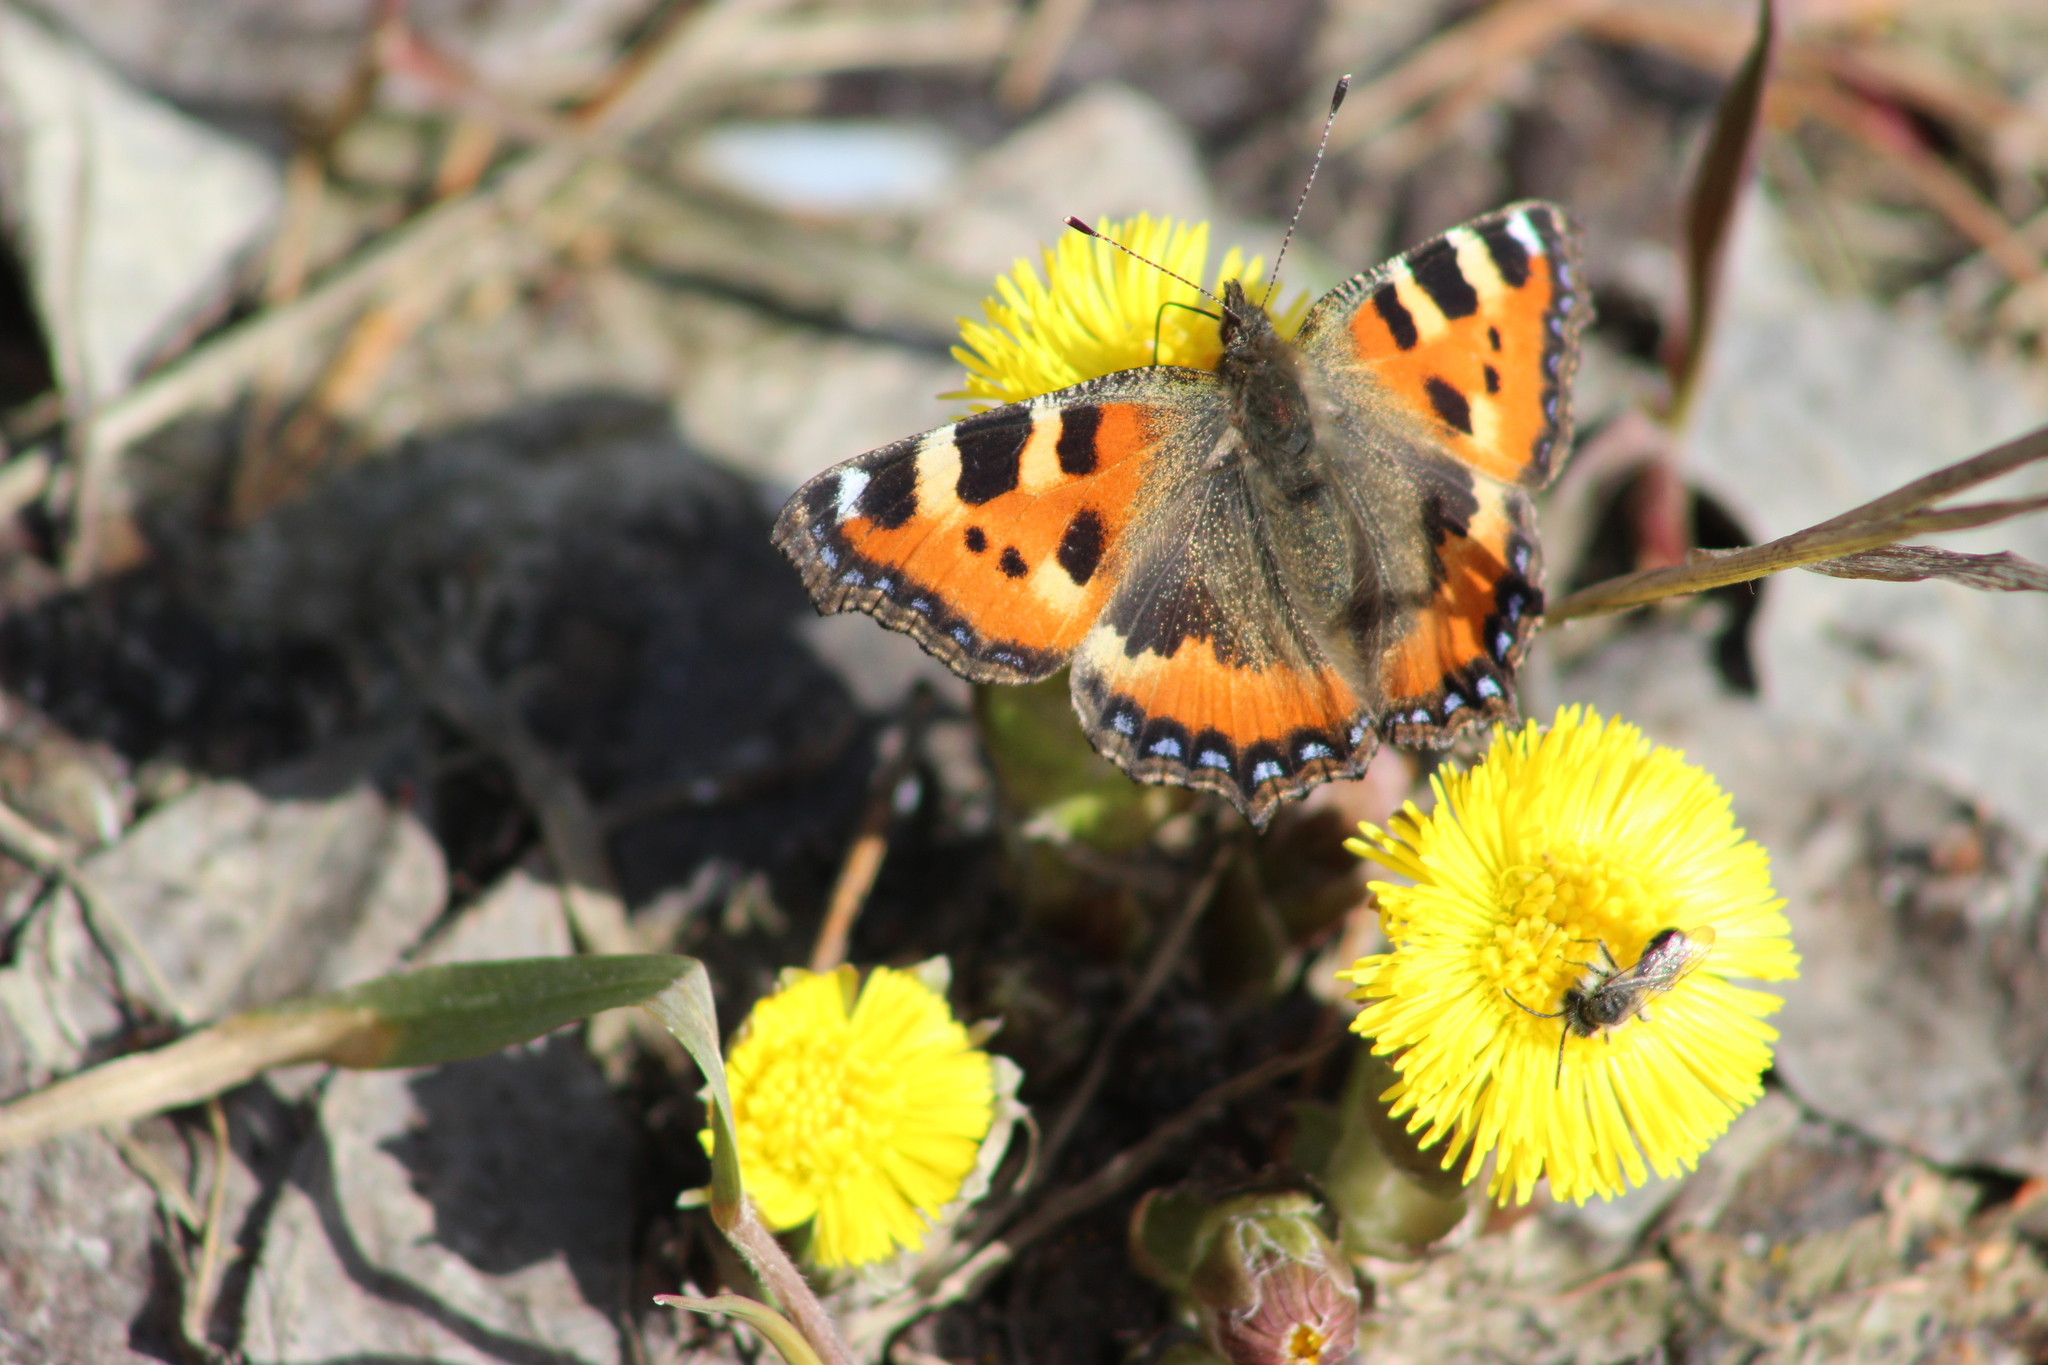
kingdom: Animalia
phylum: Arthropoda
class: Insecta
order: Lepidoptera
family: Nymphalidae
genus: Aglais
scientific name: Aglais urticae
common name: Small tortoiseshell
